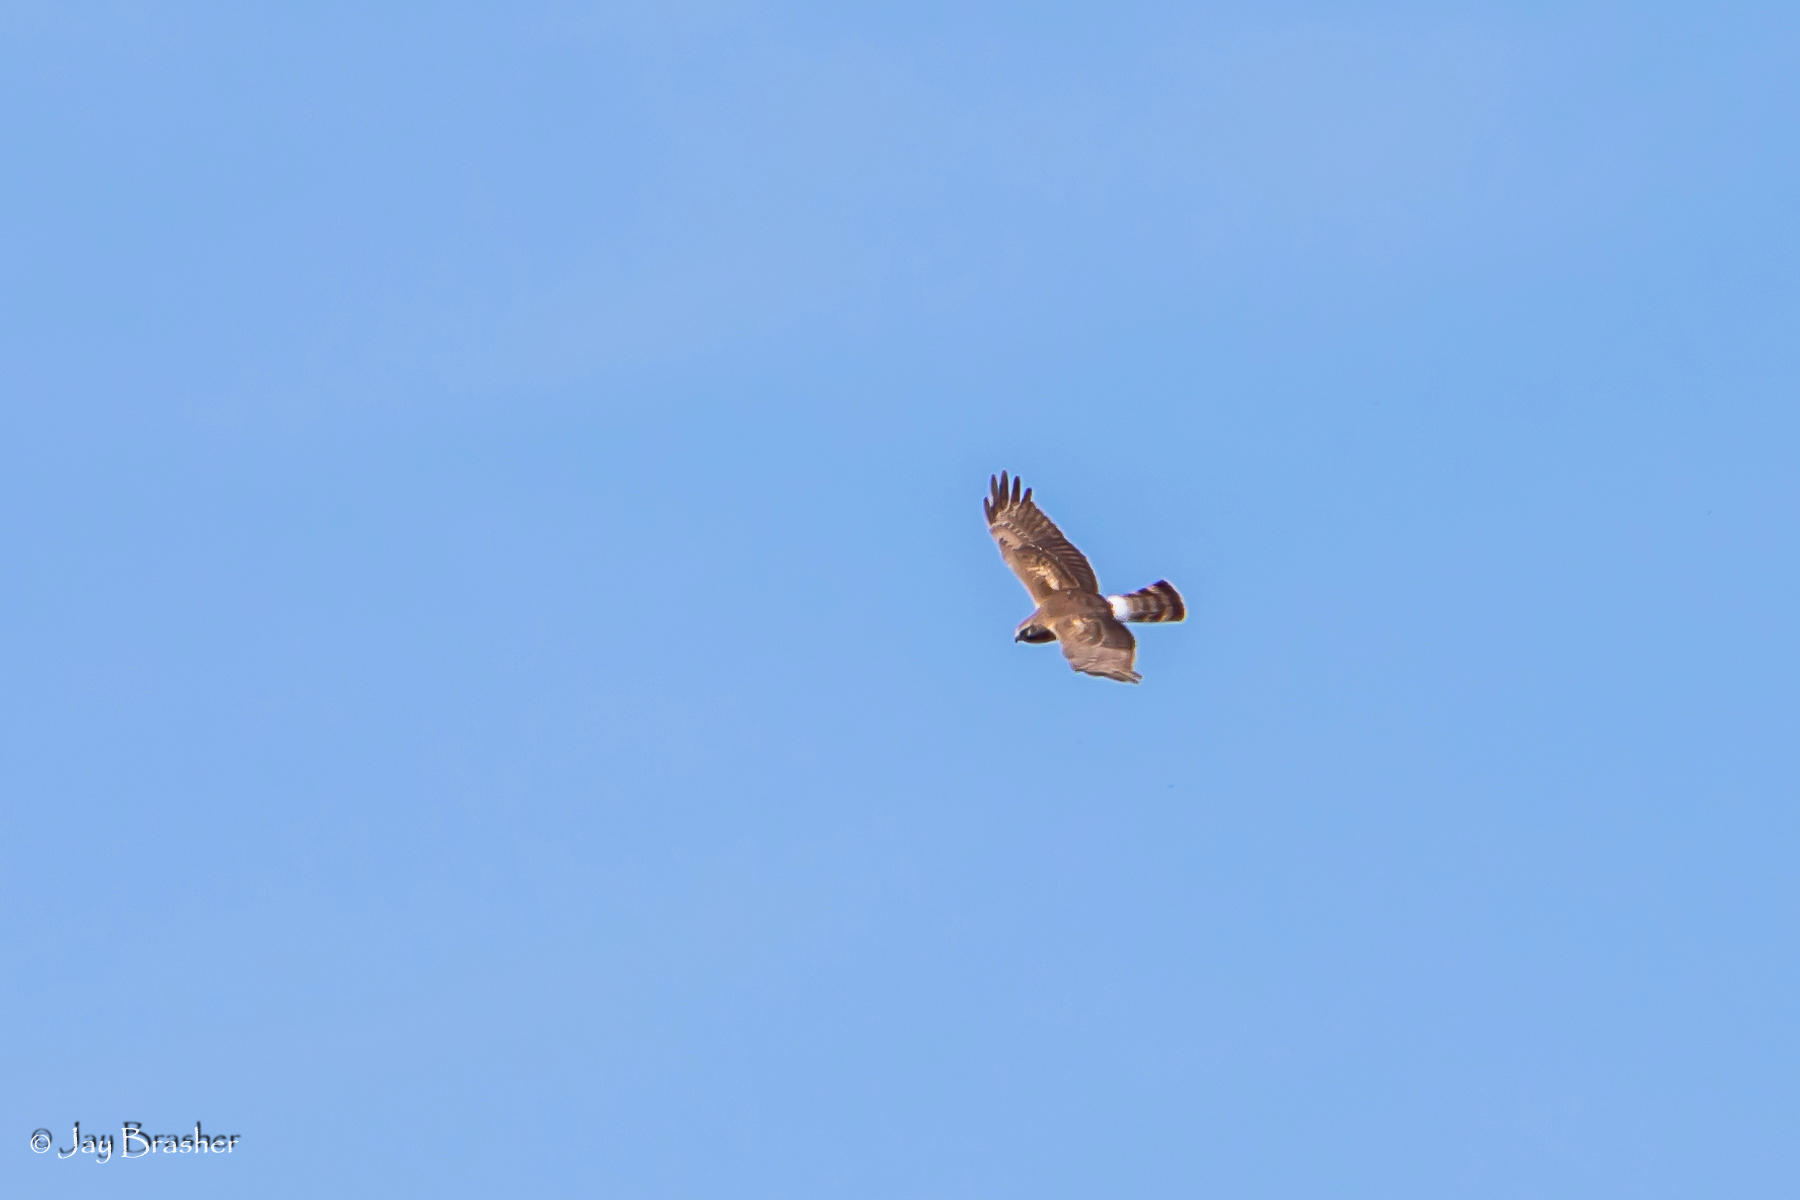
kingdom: Animalia
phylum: Chordata
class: Aves
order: Accipitriformes
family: Accipitridae
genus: Circus
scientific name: Circus cyaneus
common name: Hen harrier
